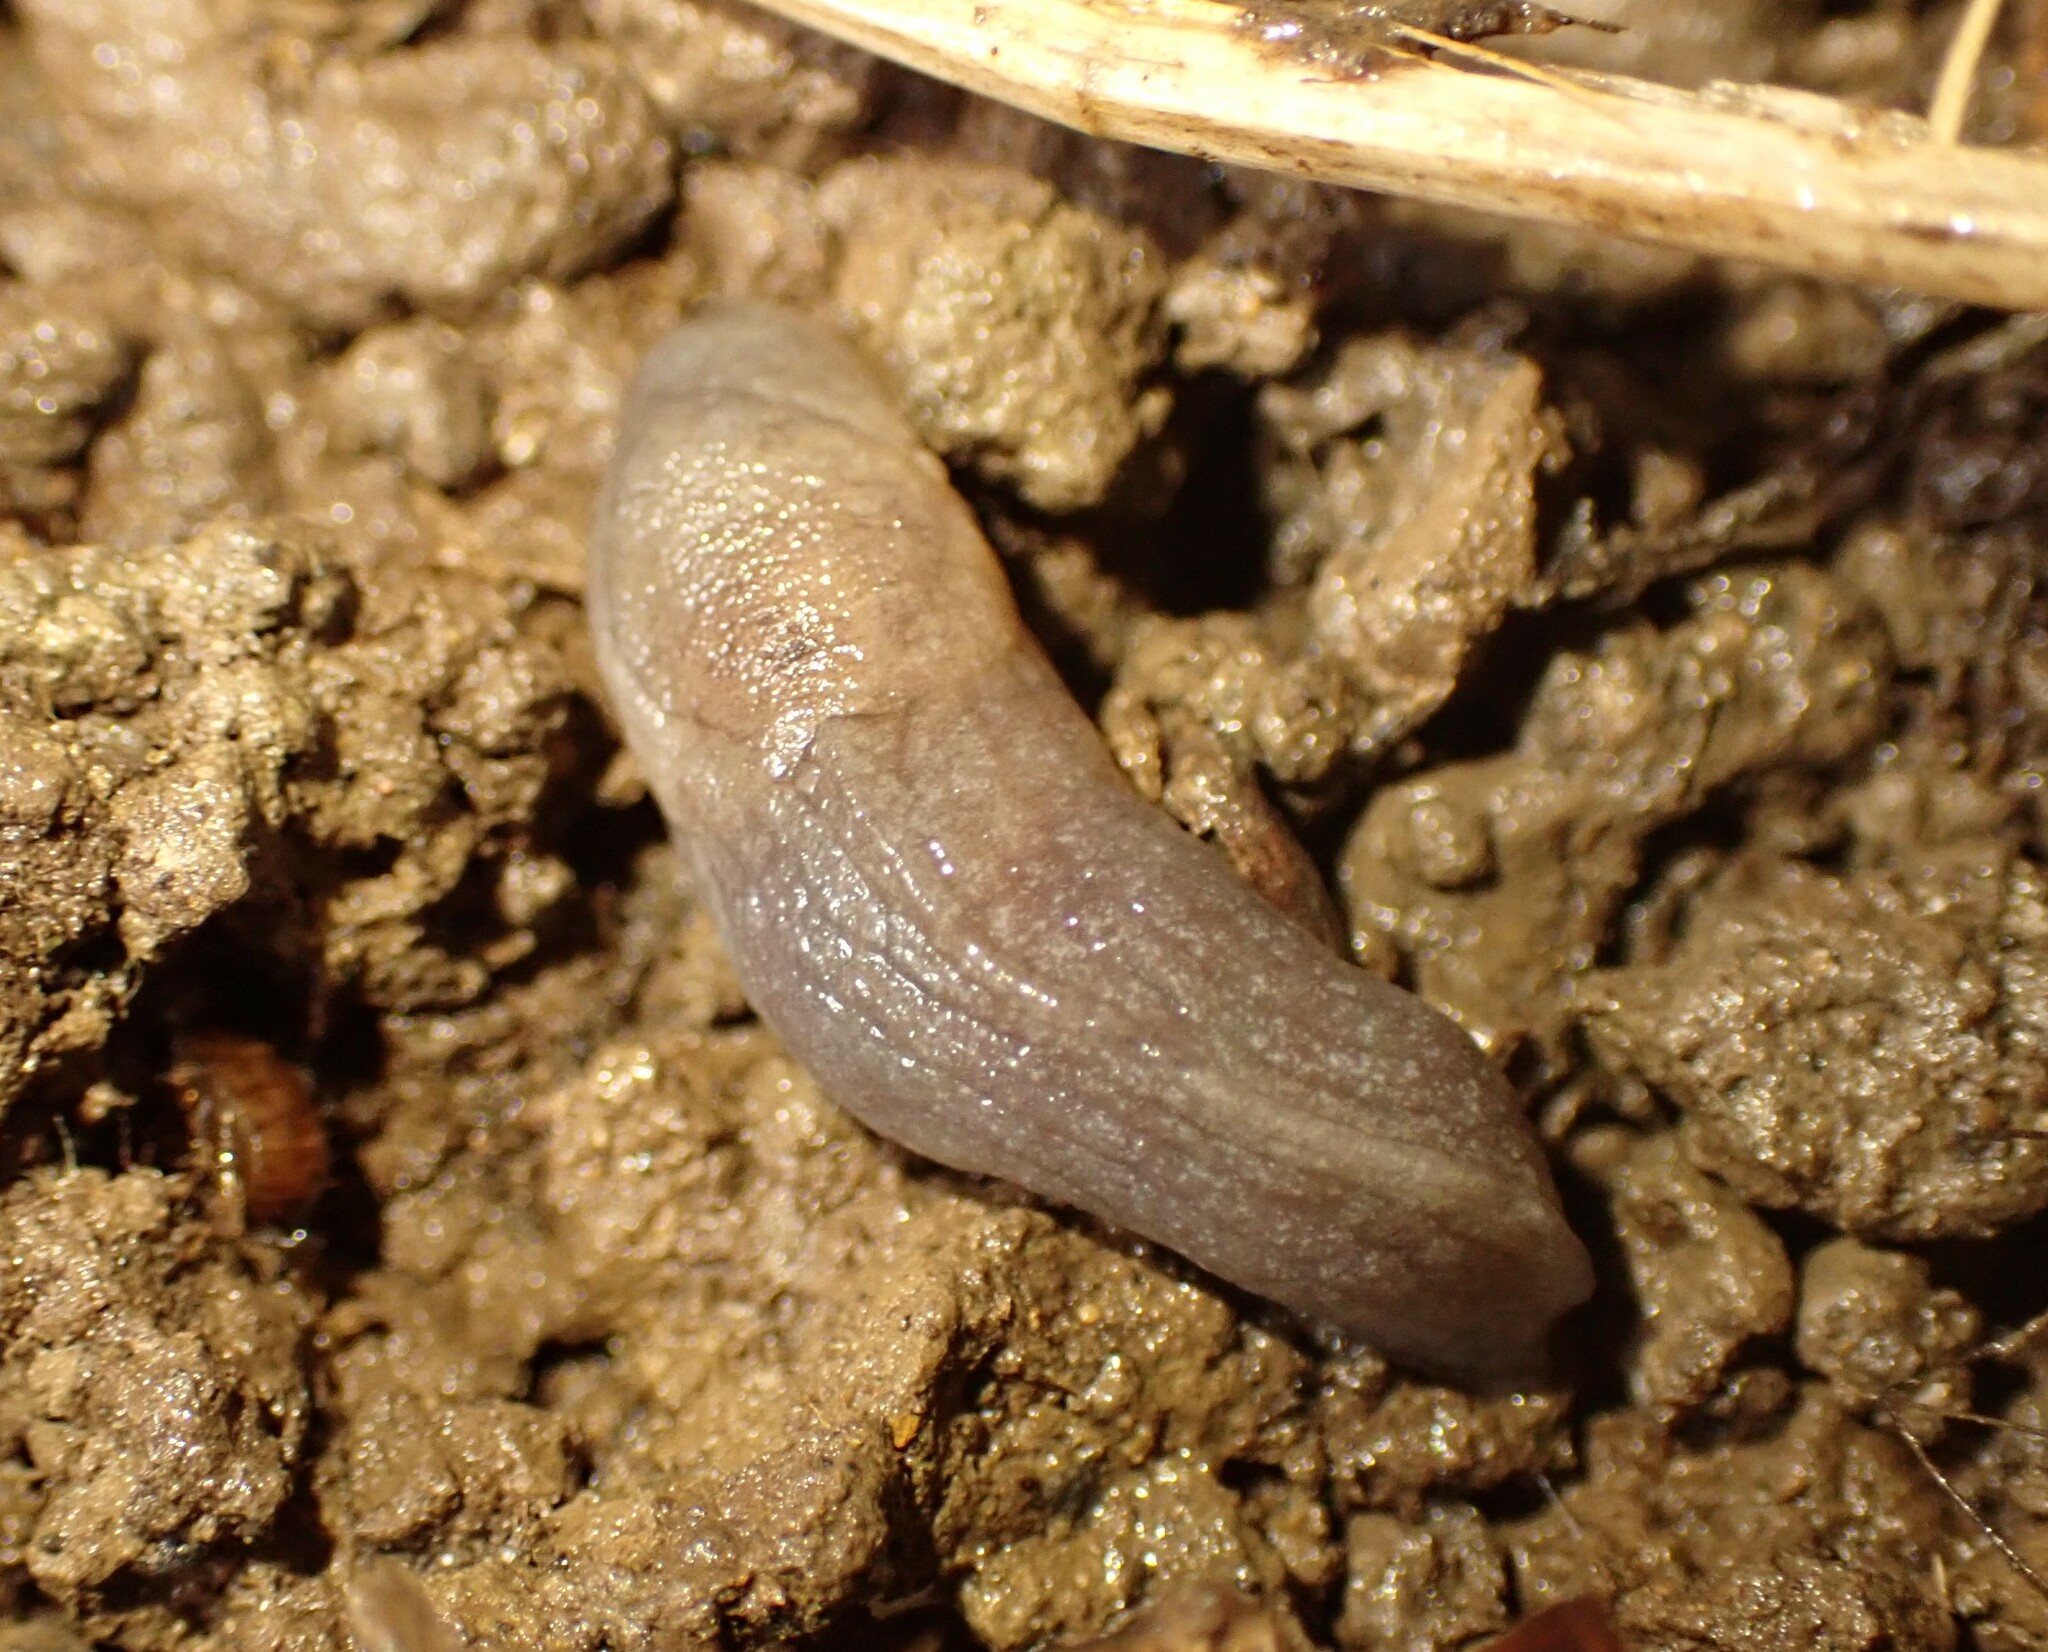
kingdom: Animalia
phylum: Mollusca
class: Gastropoda
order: Stylommatophora
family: Milacidae
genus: Milax
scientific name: Milax gagates
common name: Greenhouse slug
